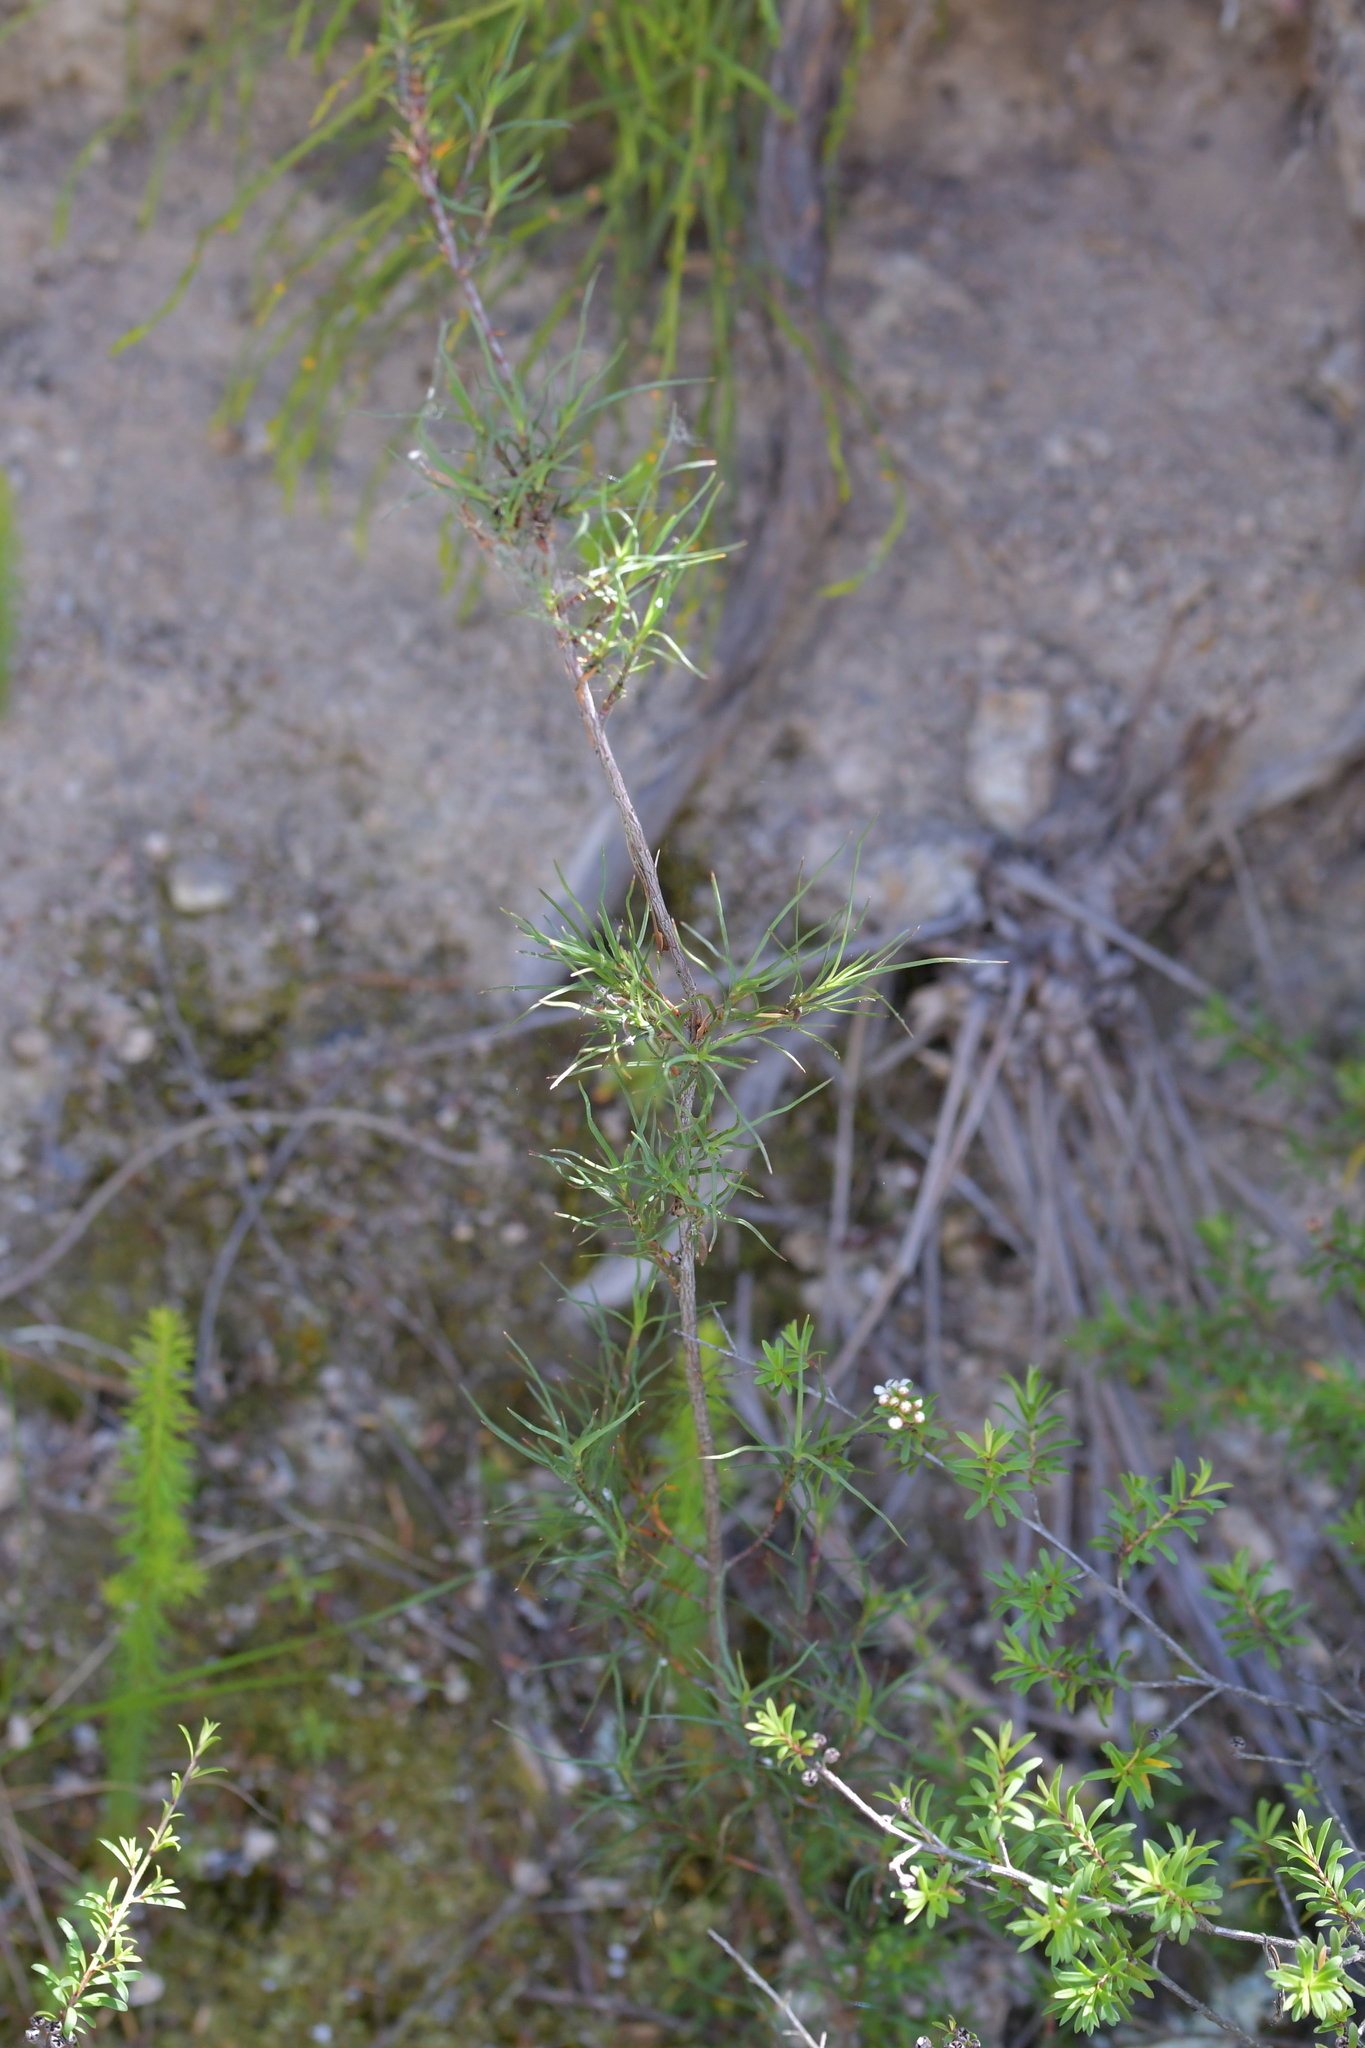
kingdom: Plantae
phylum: Tracheophyta
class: Magnoliopsida
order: Ericales
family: Ericaceae
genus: Dracophyllum
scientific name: Dracophyllum subulatum
